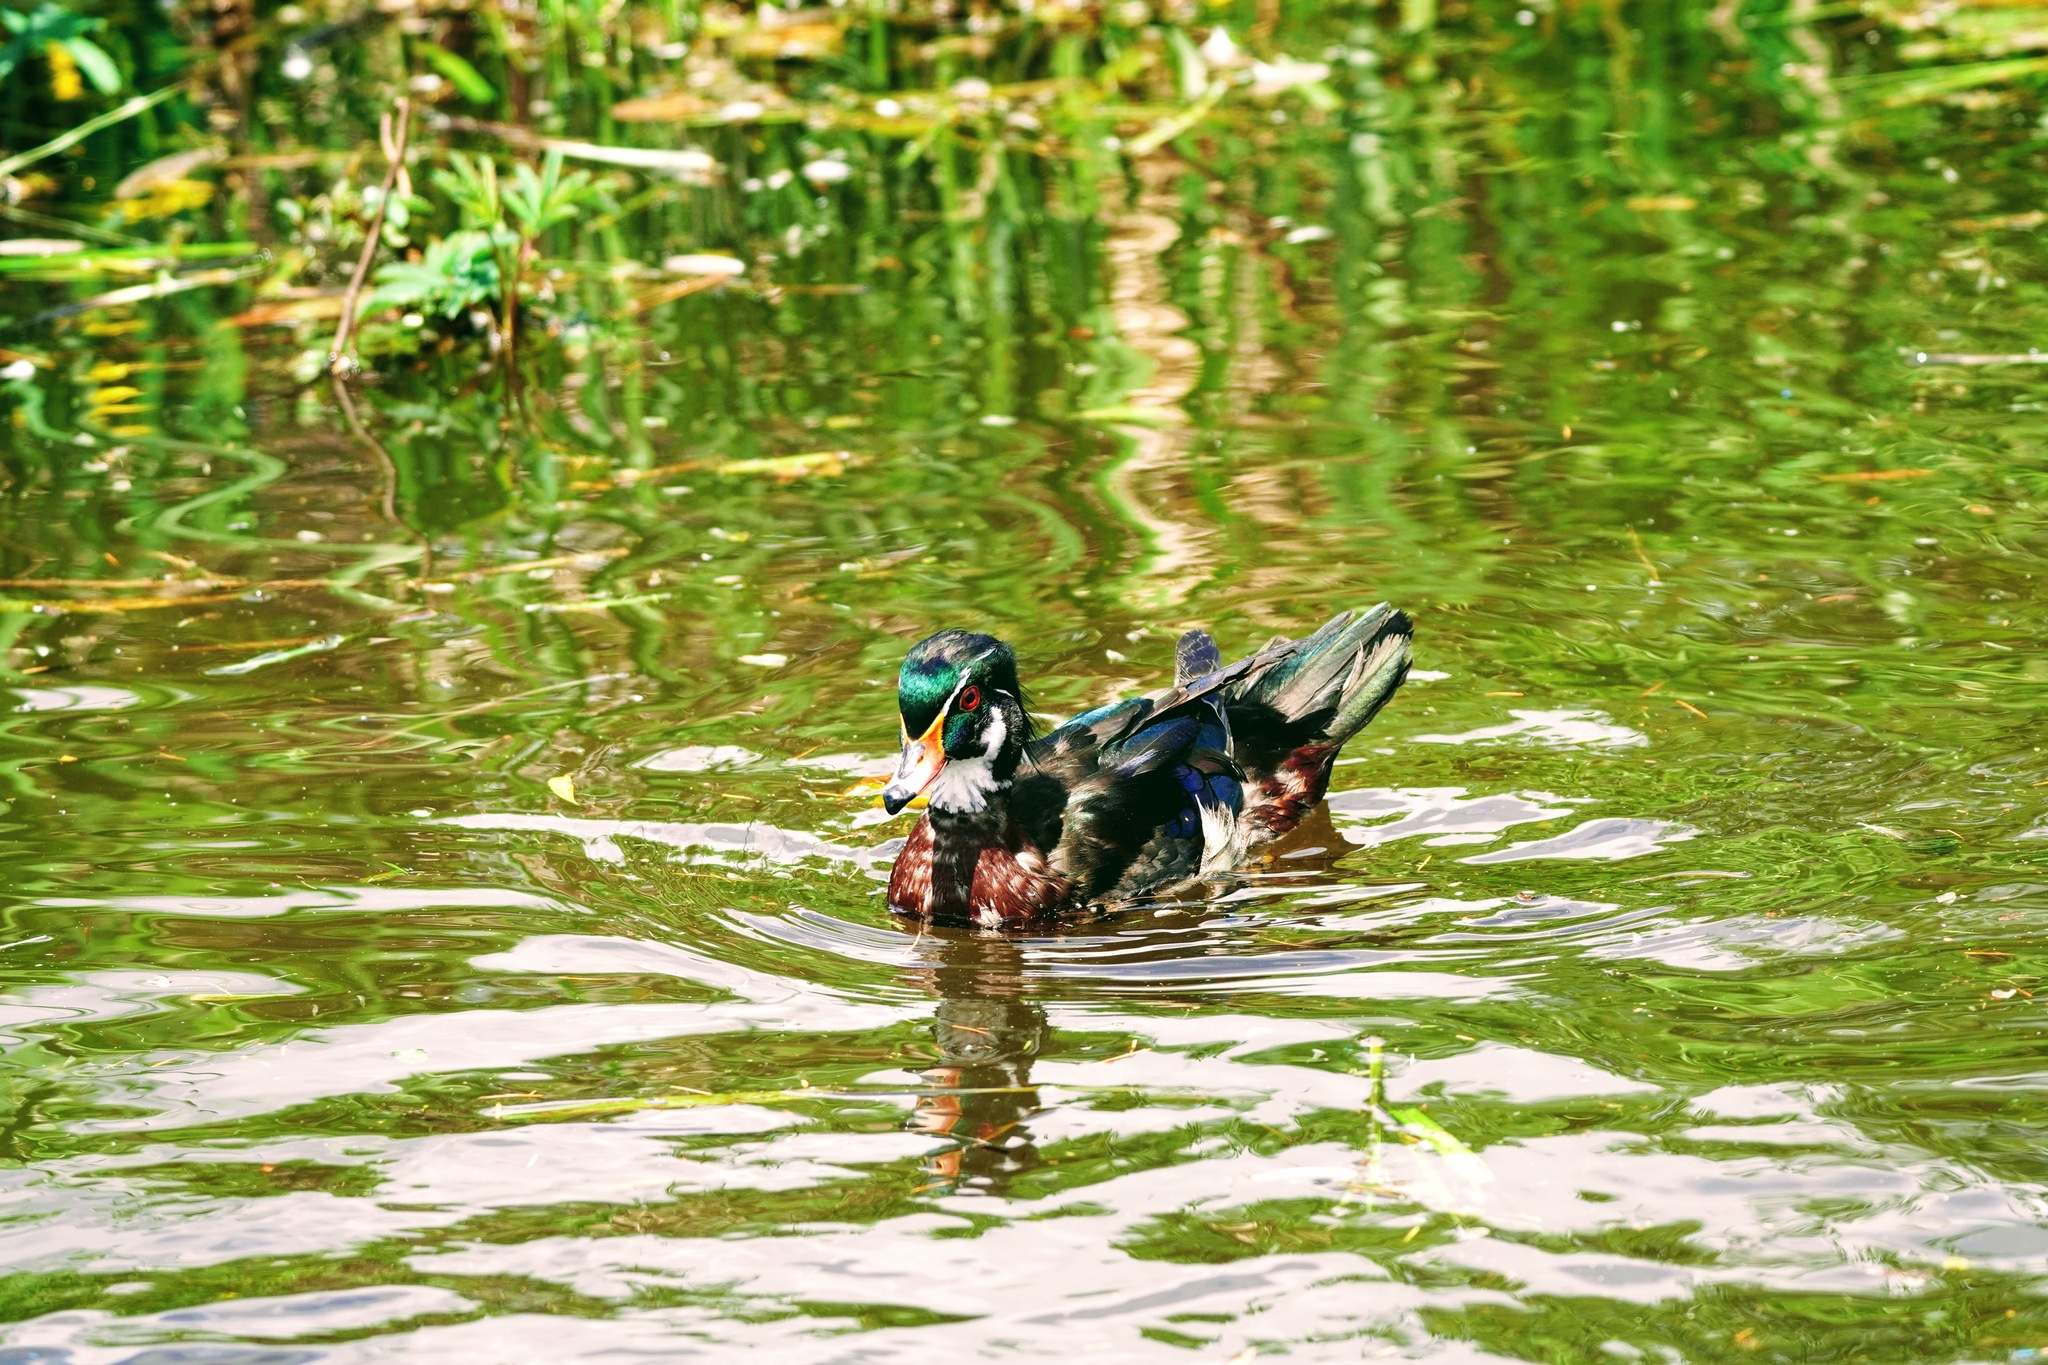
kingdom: Animalia
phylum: Chordata
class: Aves
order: Anseriformes
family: Anatidae
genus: Aix
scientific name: Aix sponsa
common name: Wood duck
